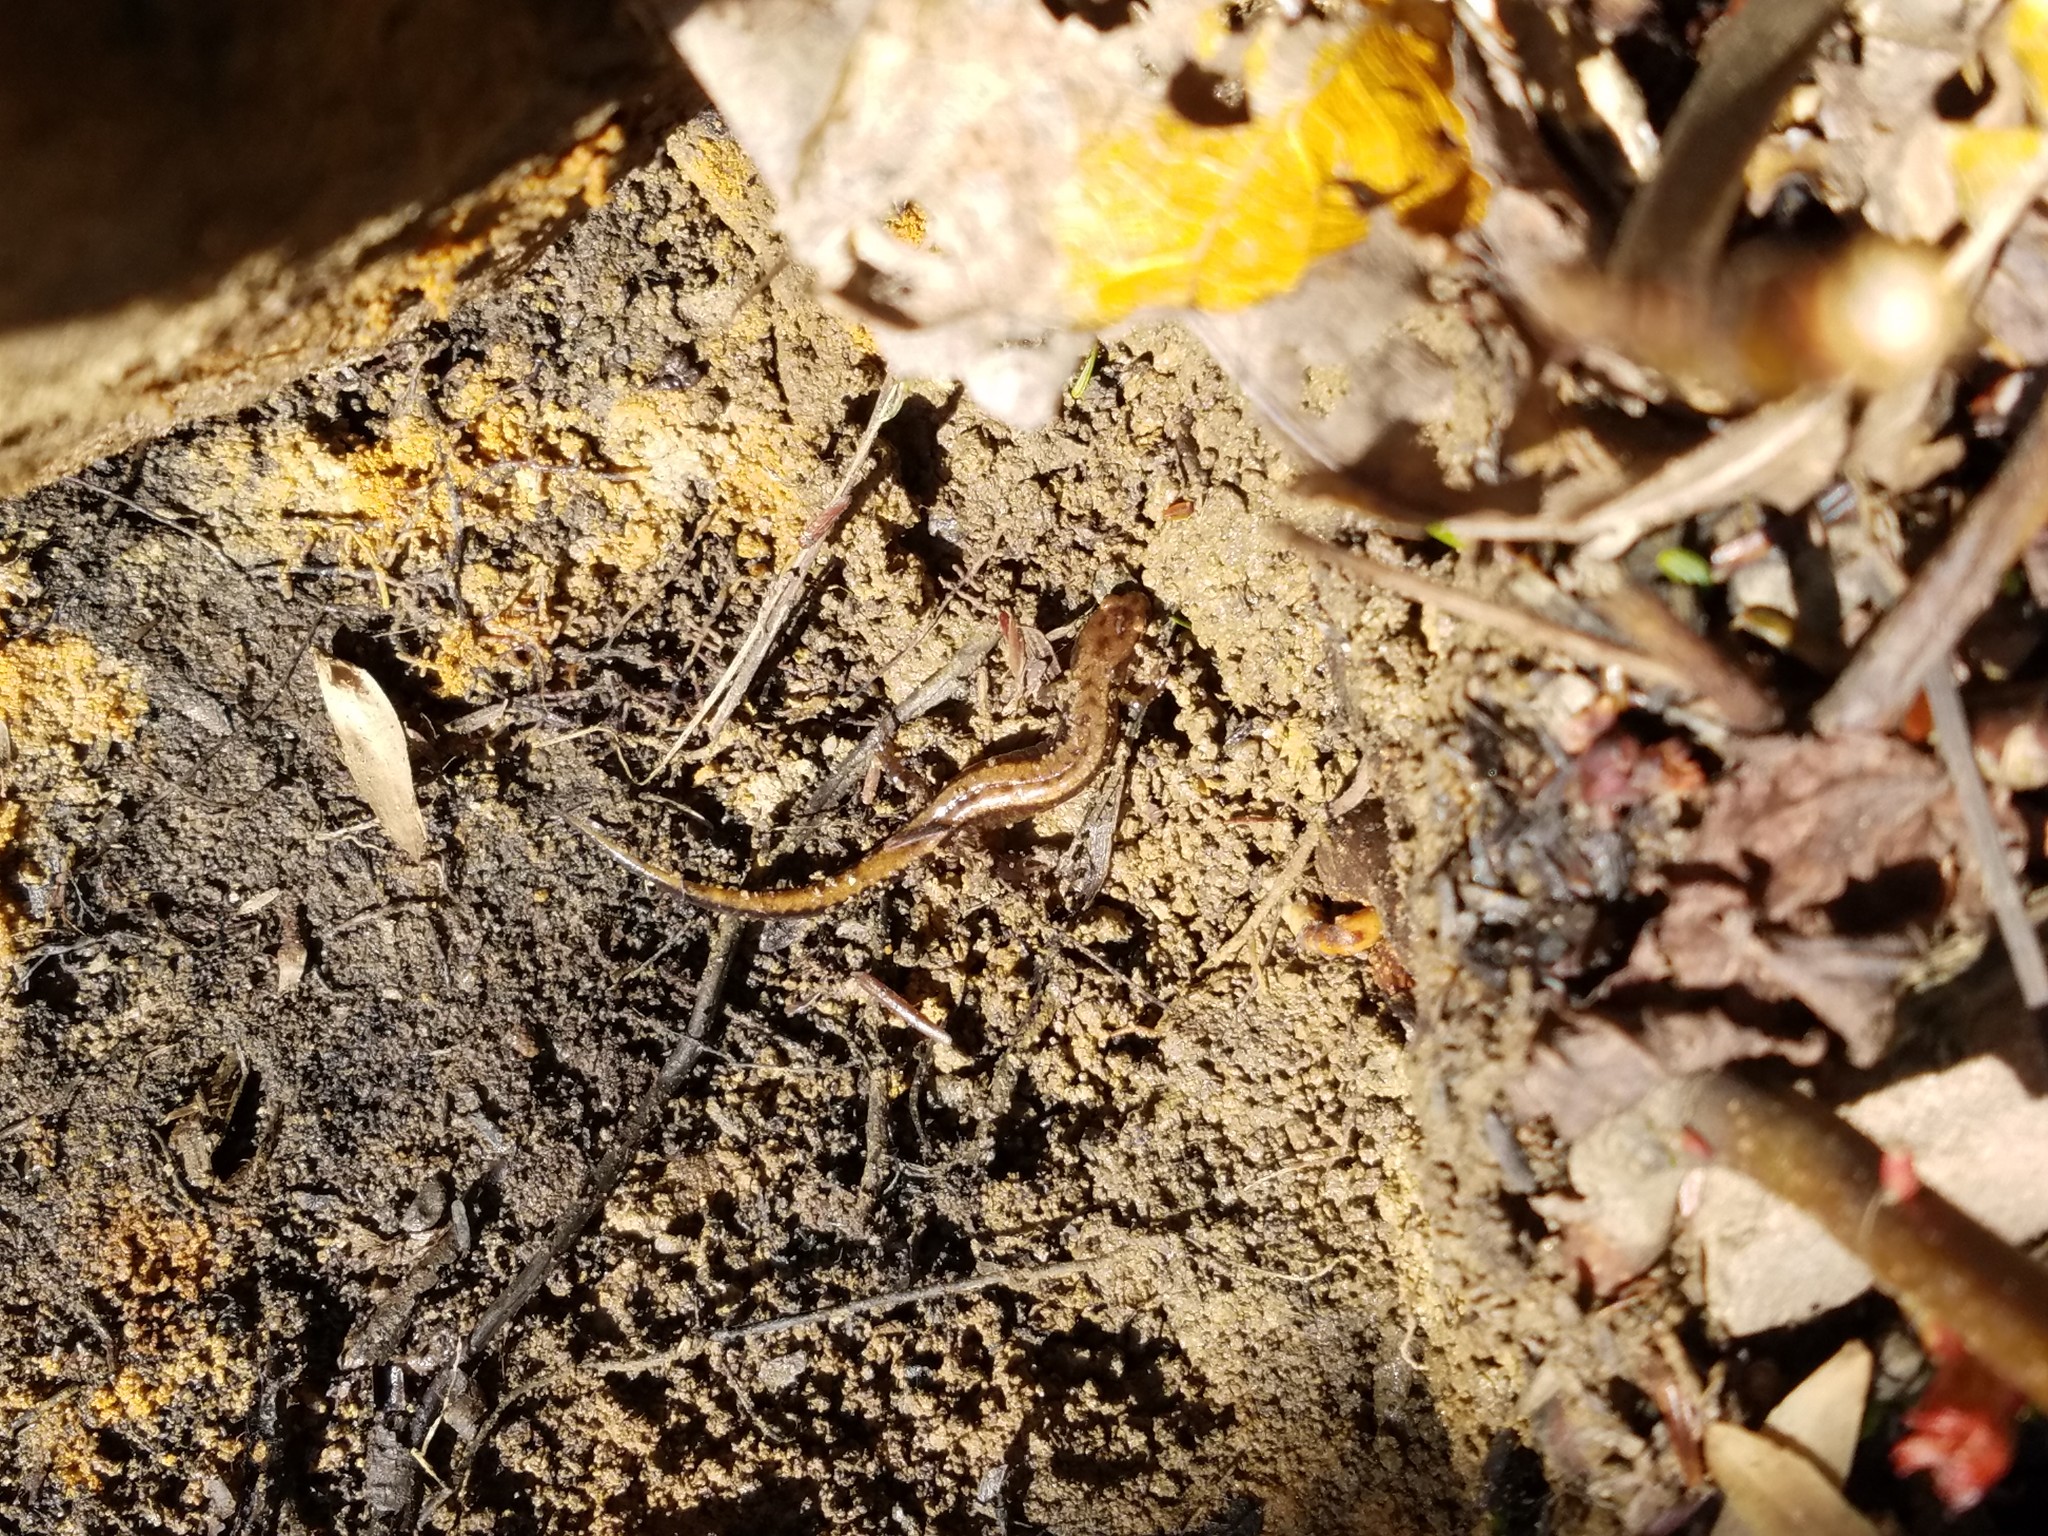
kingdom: Animalia
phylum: Chordata
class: Amphibia
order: Caudata
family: Plethodontidae
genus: Desmognathus
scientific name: Desmognathus ochrophaeus
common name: Allegheny mountain dusky salamander
